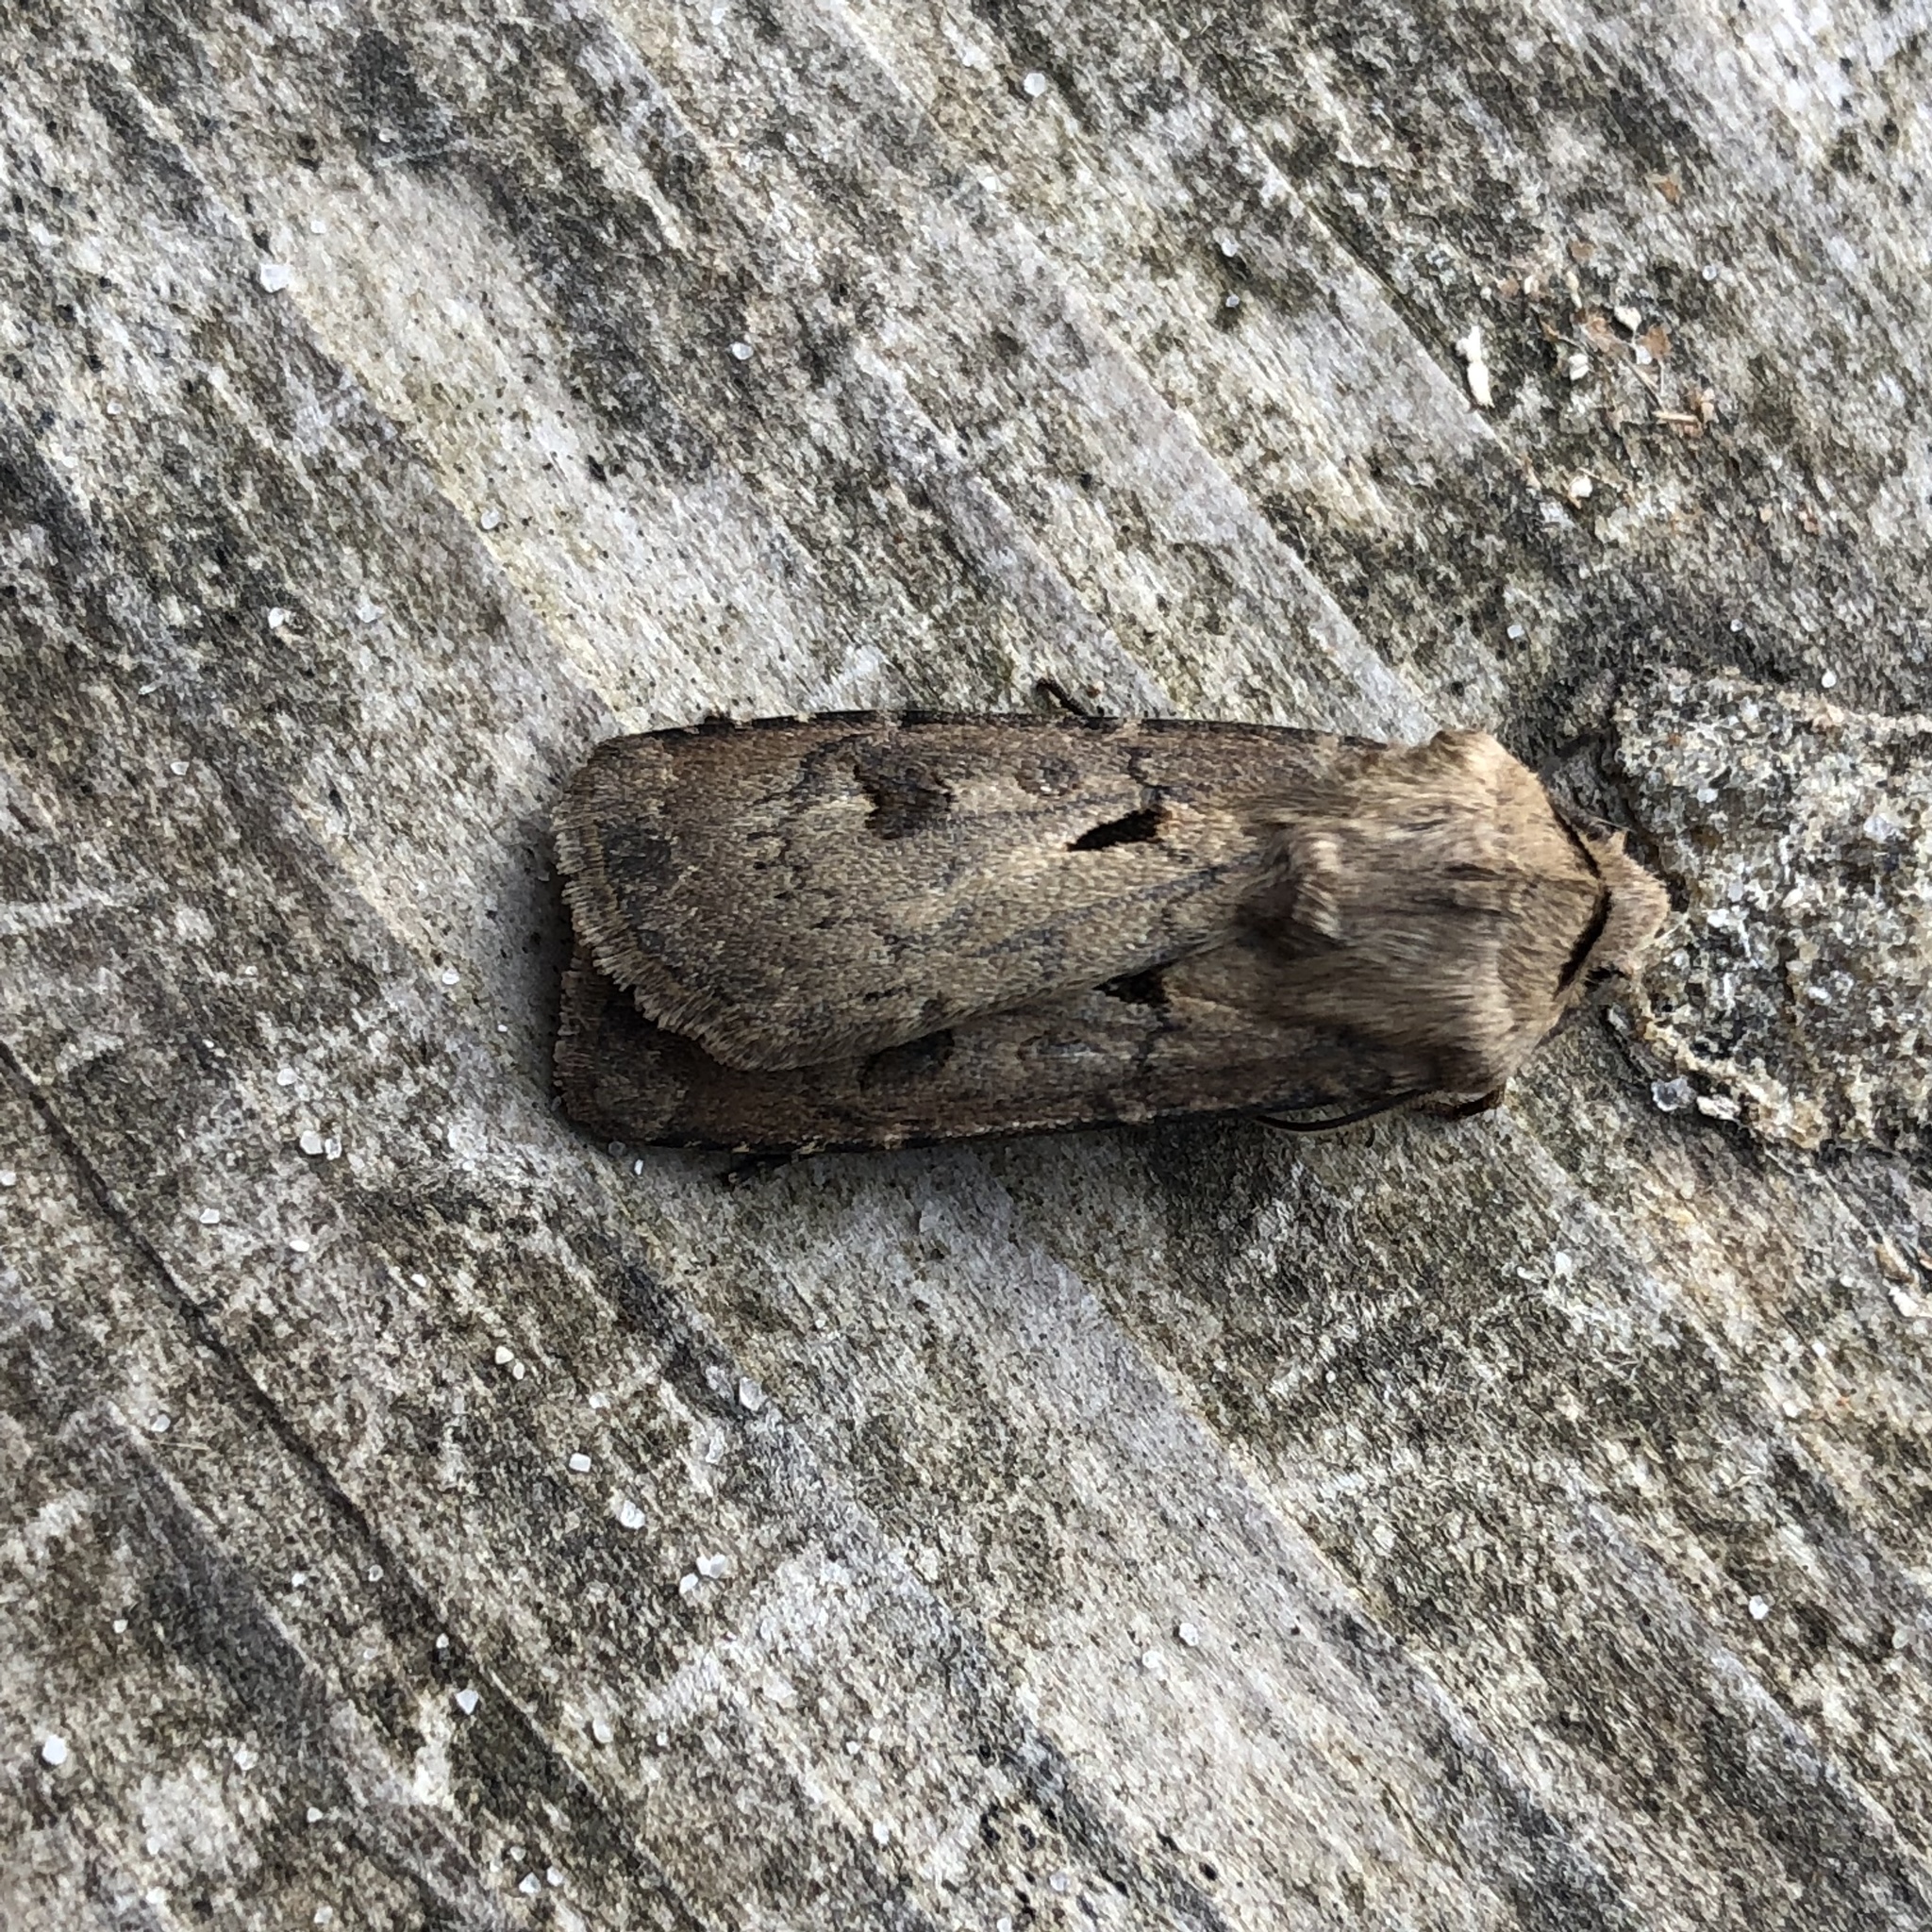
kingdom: Animalia
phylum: Arthropoda
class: Insecta
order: Lepidoptera
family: Noctuidae
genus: Agrotis
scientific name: Agrotis exclamationis
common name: Heart and dart
